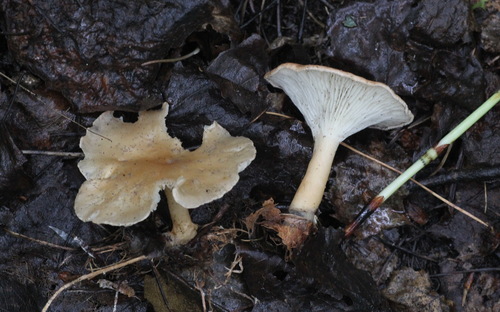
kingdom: Fungi
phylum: Basidiomycota
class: Agaricomycetes
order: Agaricales
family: Tricholomataceae
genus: Infundibulicybe
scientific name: Infundibulicybe gibba
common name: Common funnel
